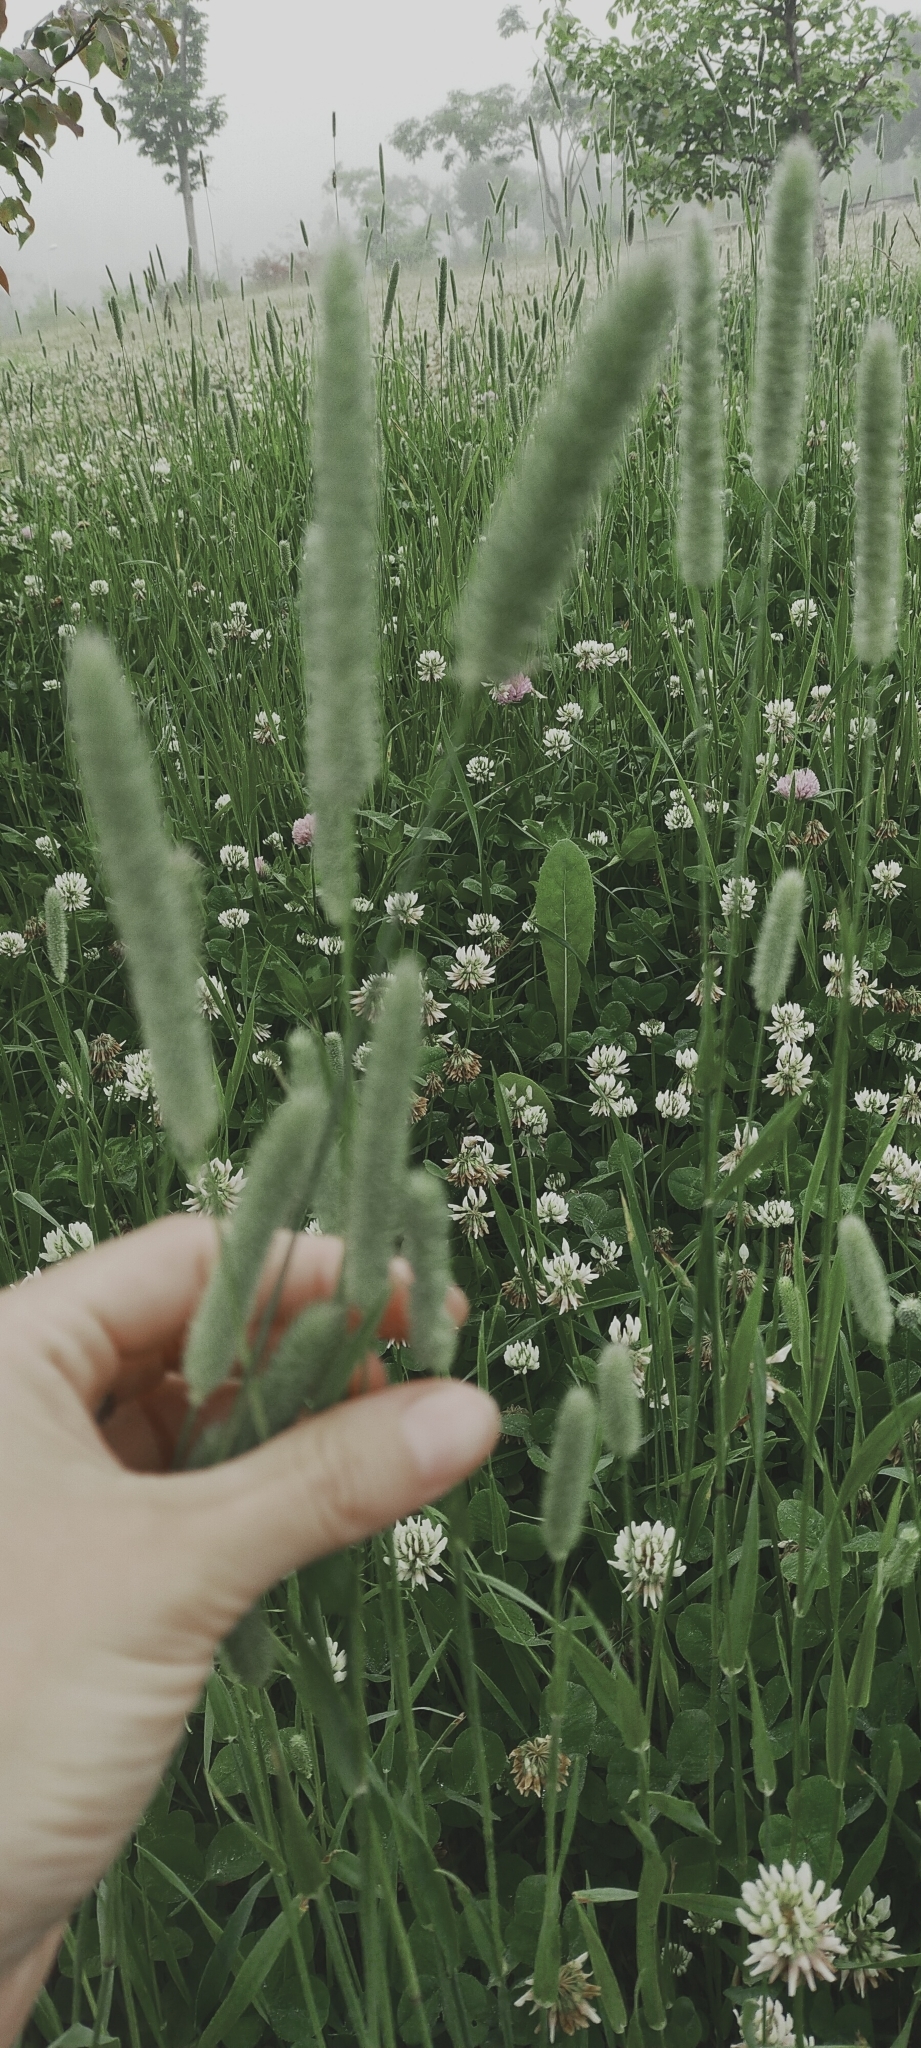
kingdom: Plantae
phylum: Tracheophyta
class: Liliopsida
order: Poales
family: Poaceae
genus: Phleum
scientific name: Phleum pratense
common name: Timothy grass
